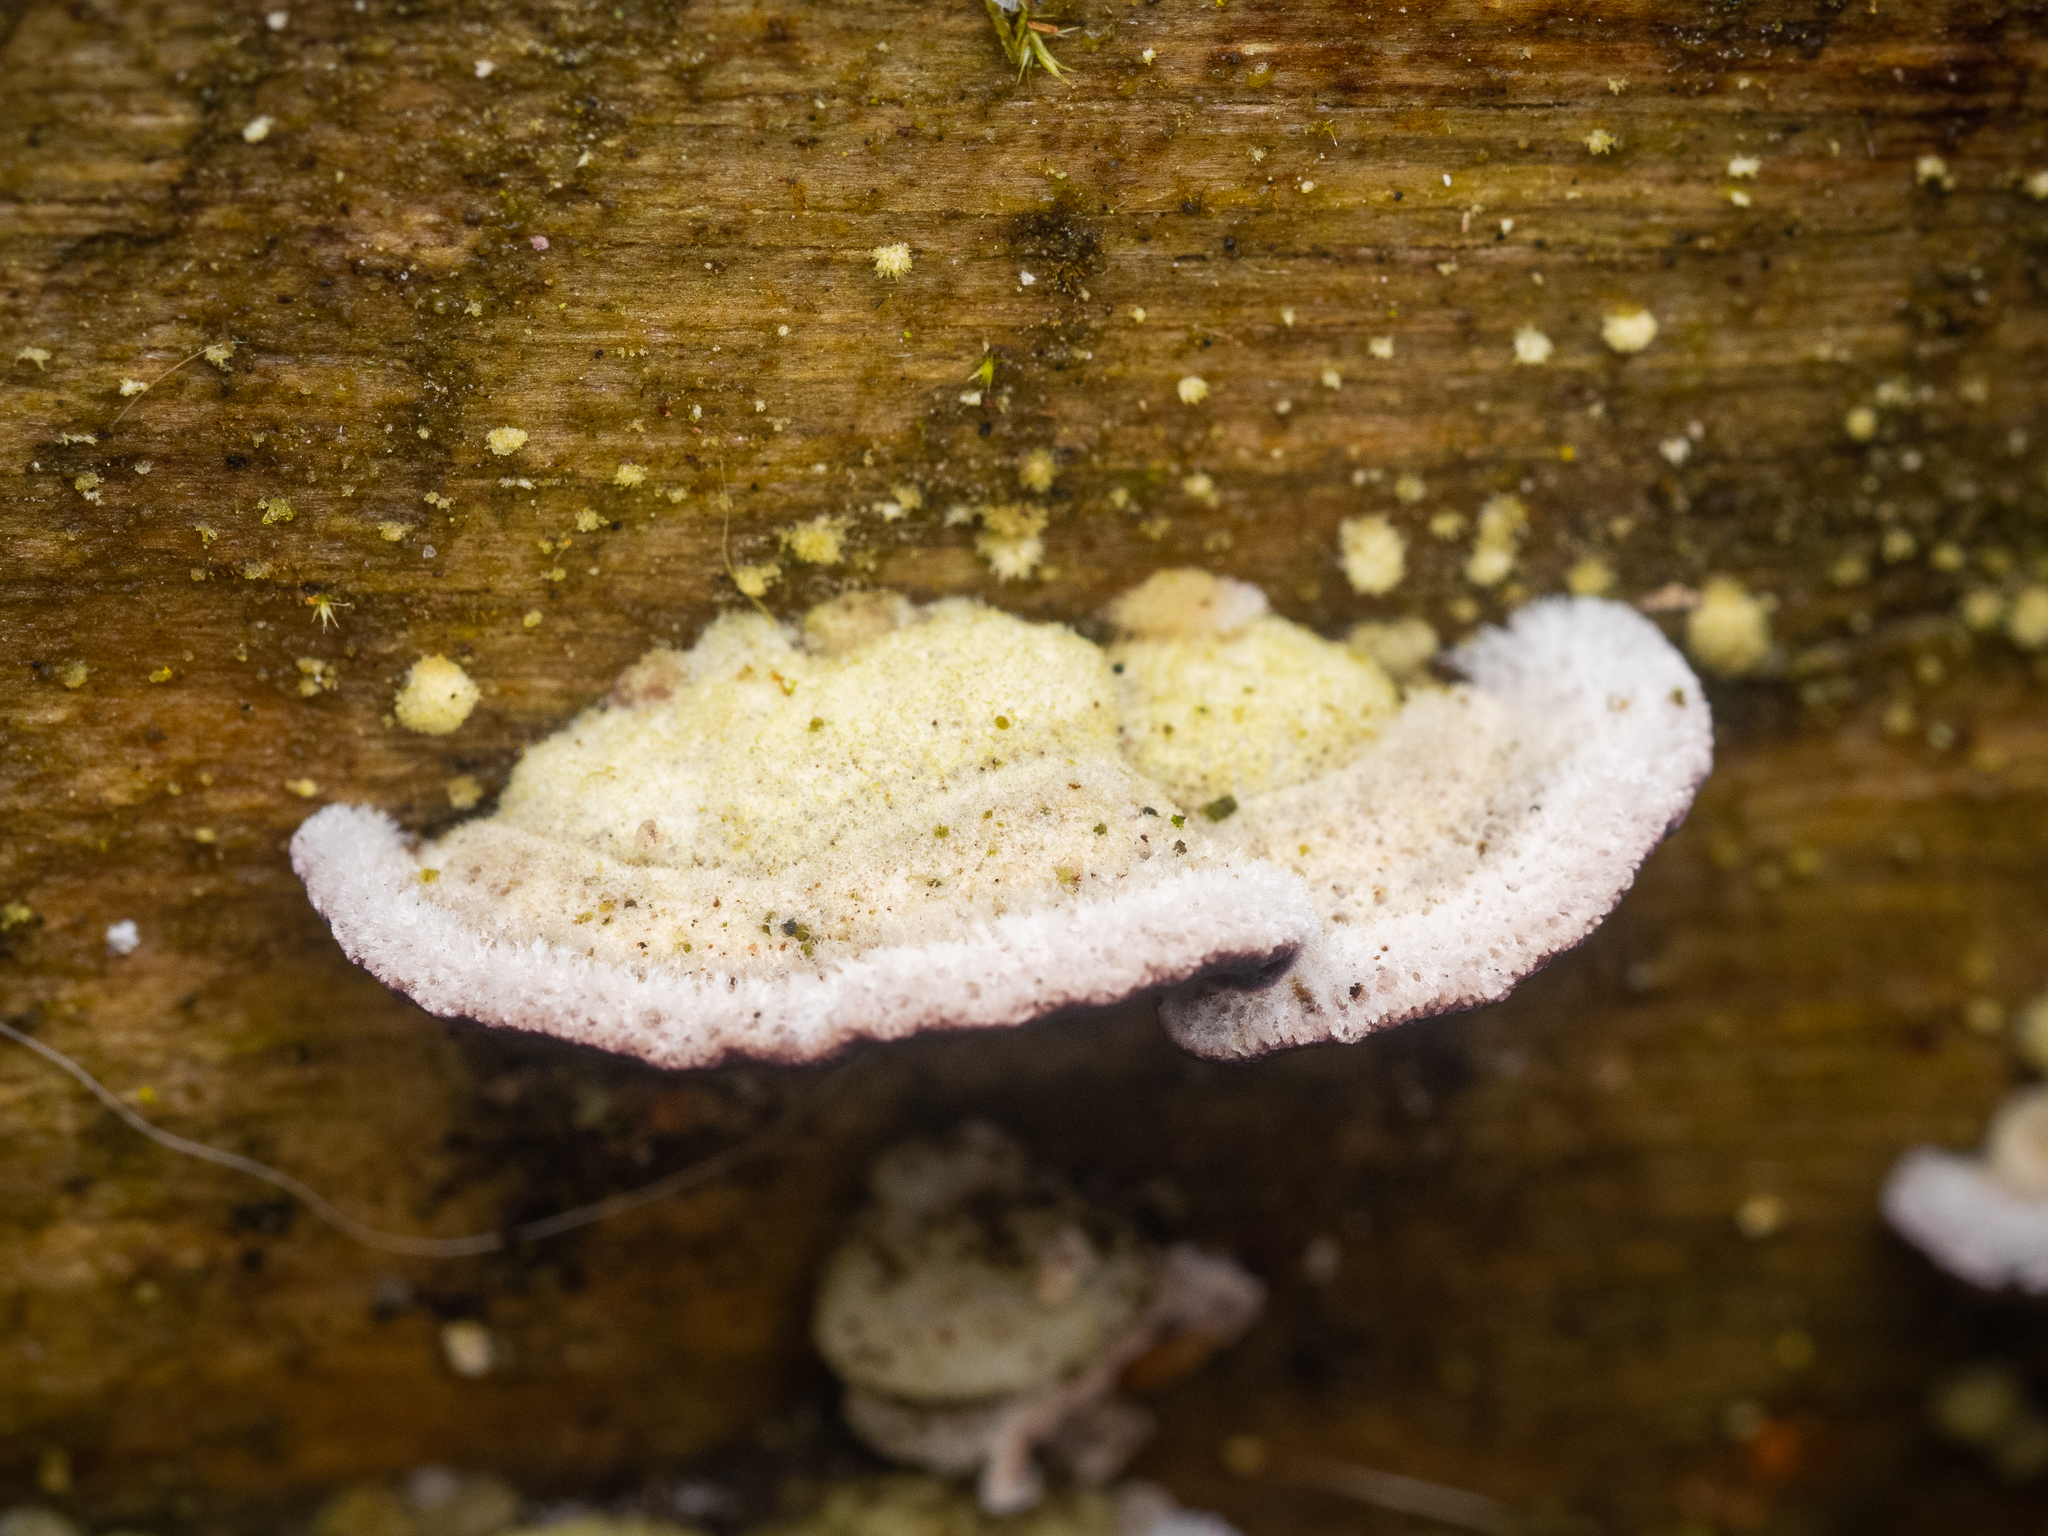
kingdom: Fungi
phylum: Basidiomycota
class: Agaricomycetes
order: Hymenochaetales
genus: Trichaptum
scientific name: Trichaptum fuscoviolaceum
